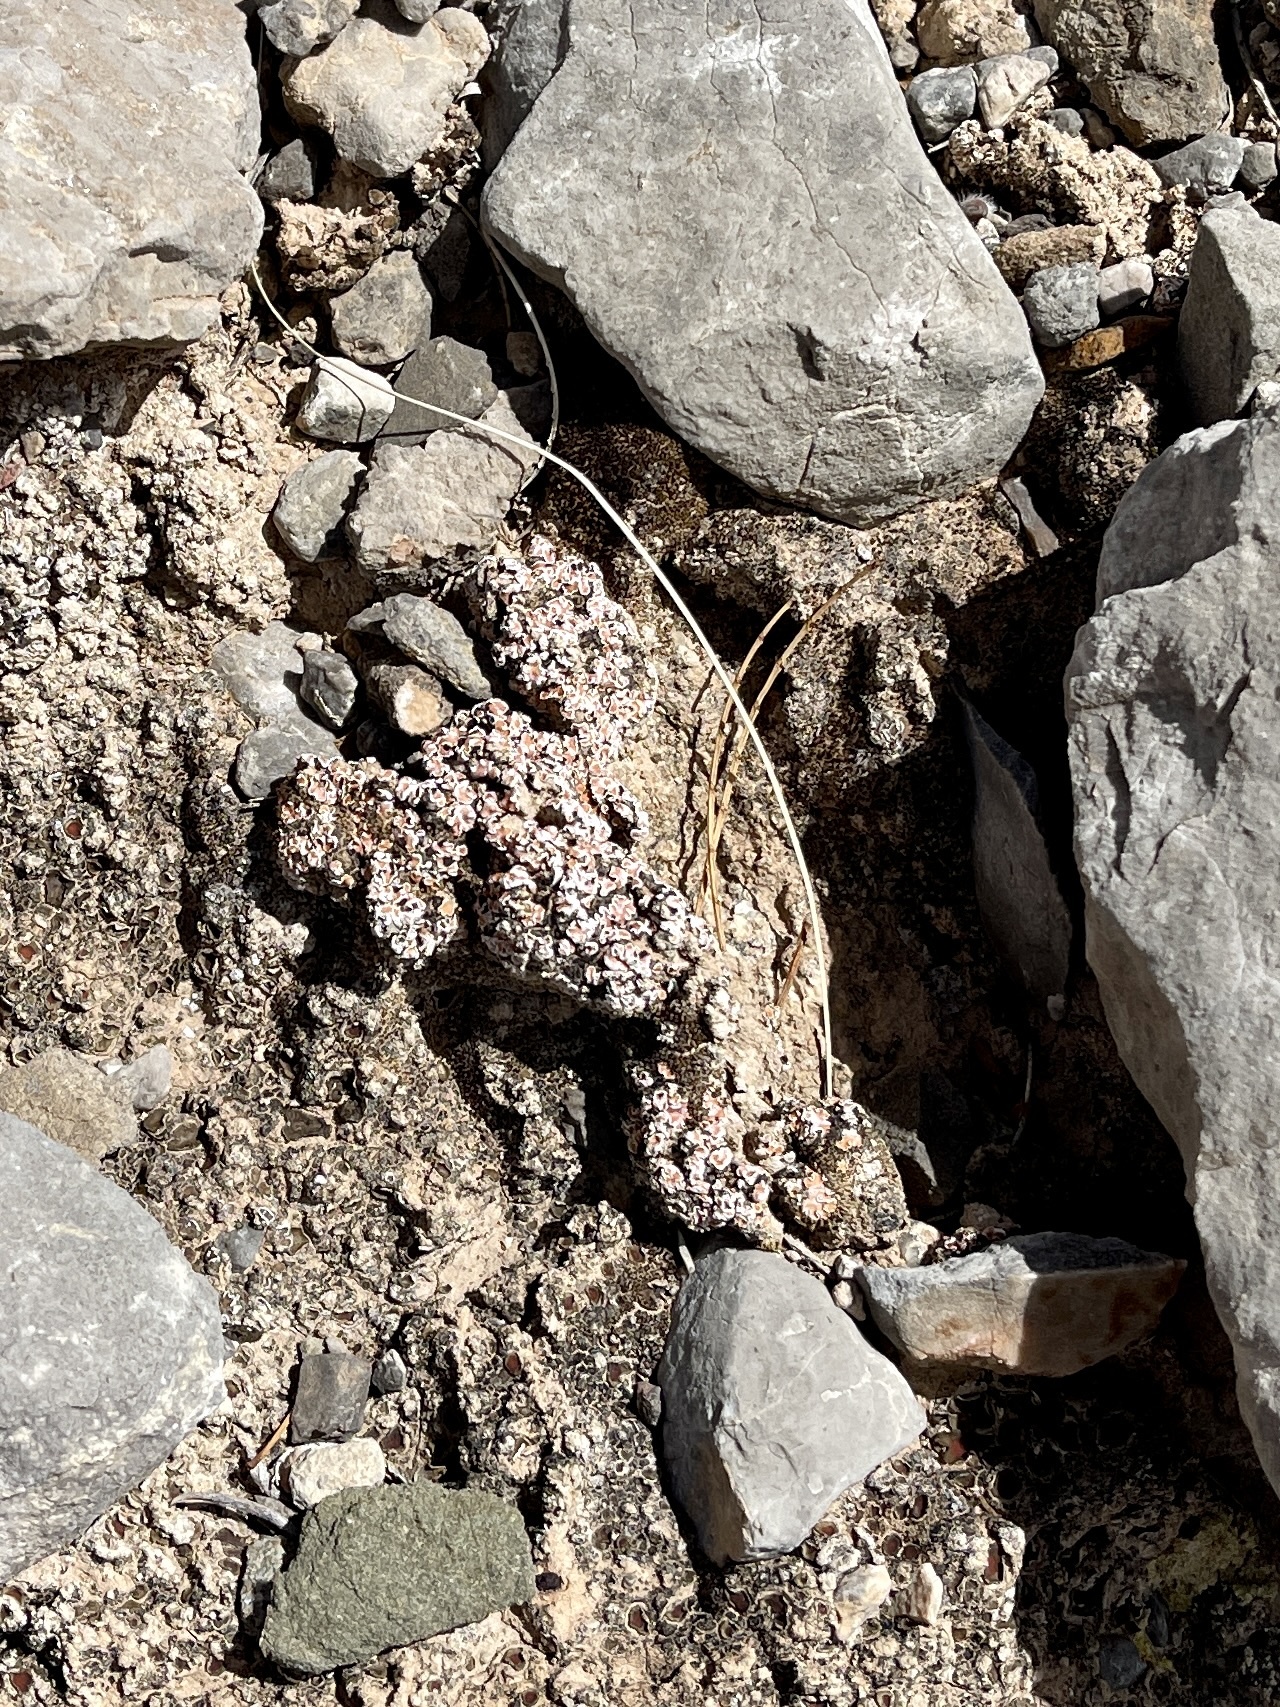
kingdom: Fungi
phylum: Ascomycota
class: Lecanoromycetes
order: Lecanorales
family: Psoraceae
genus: Psora
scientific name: Psora decipiens
